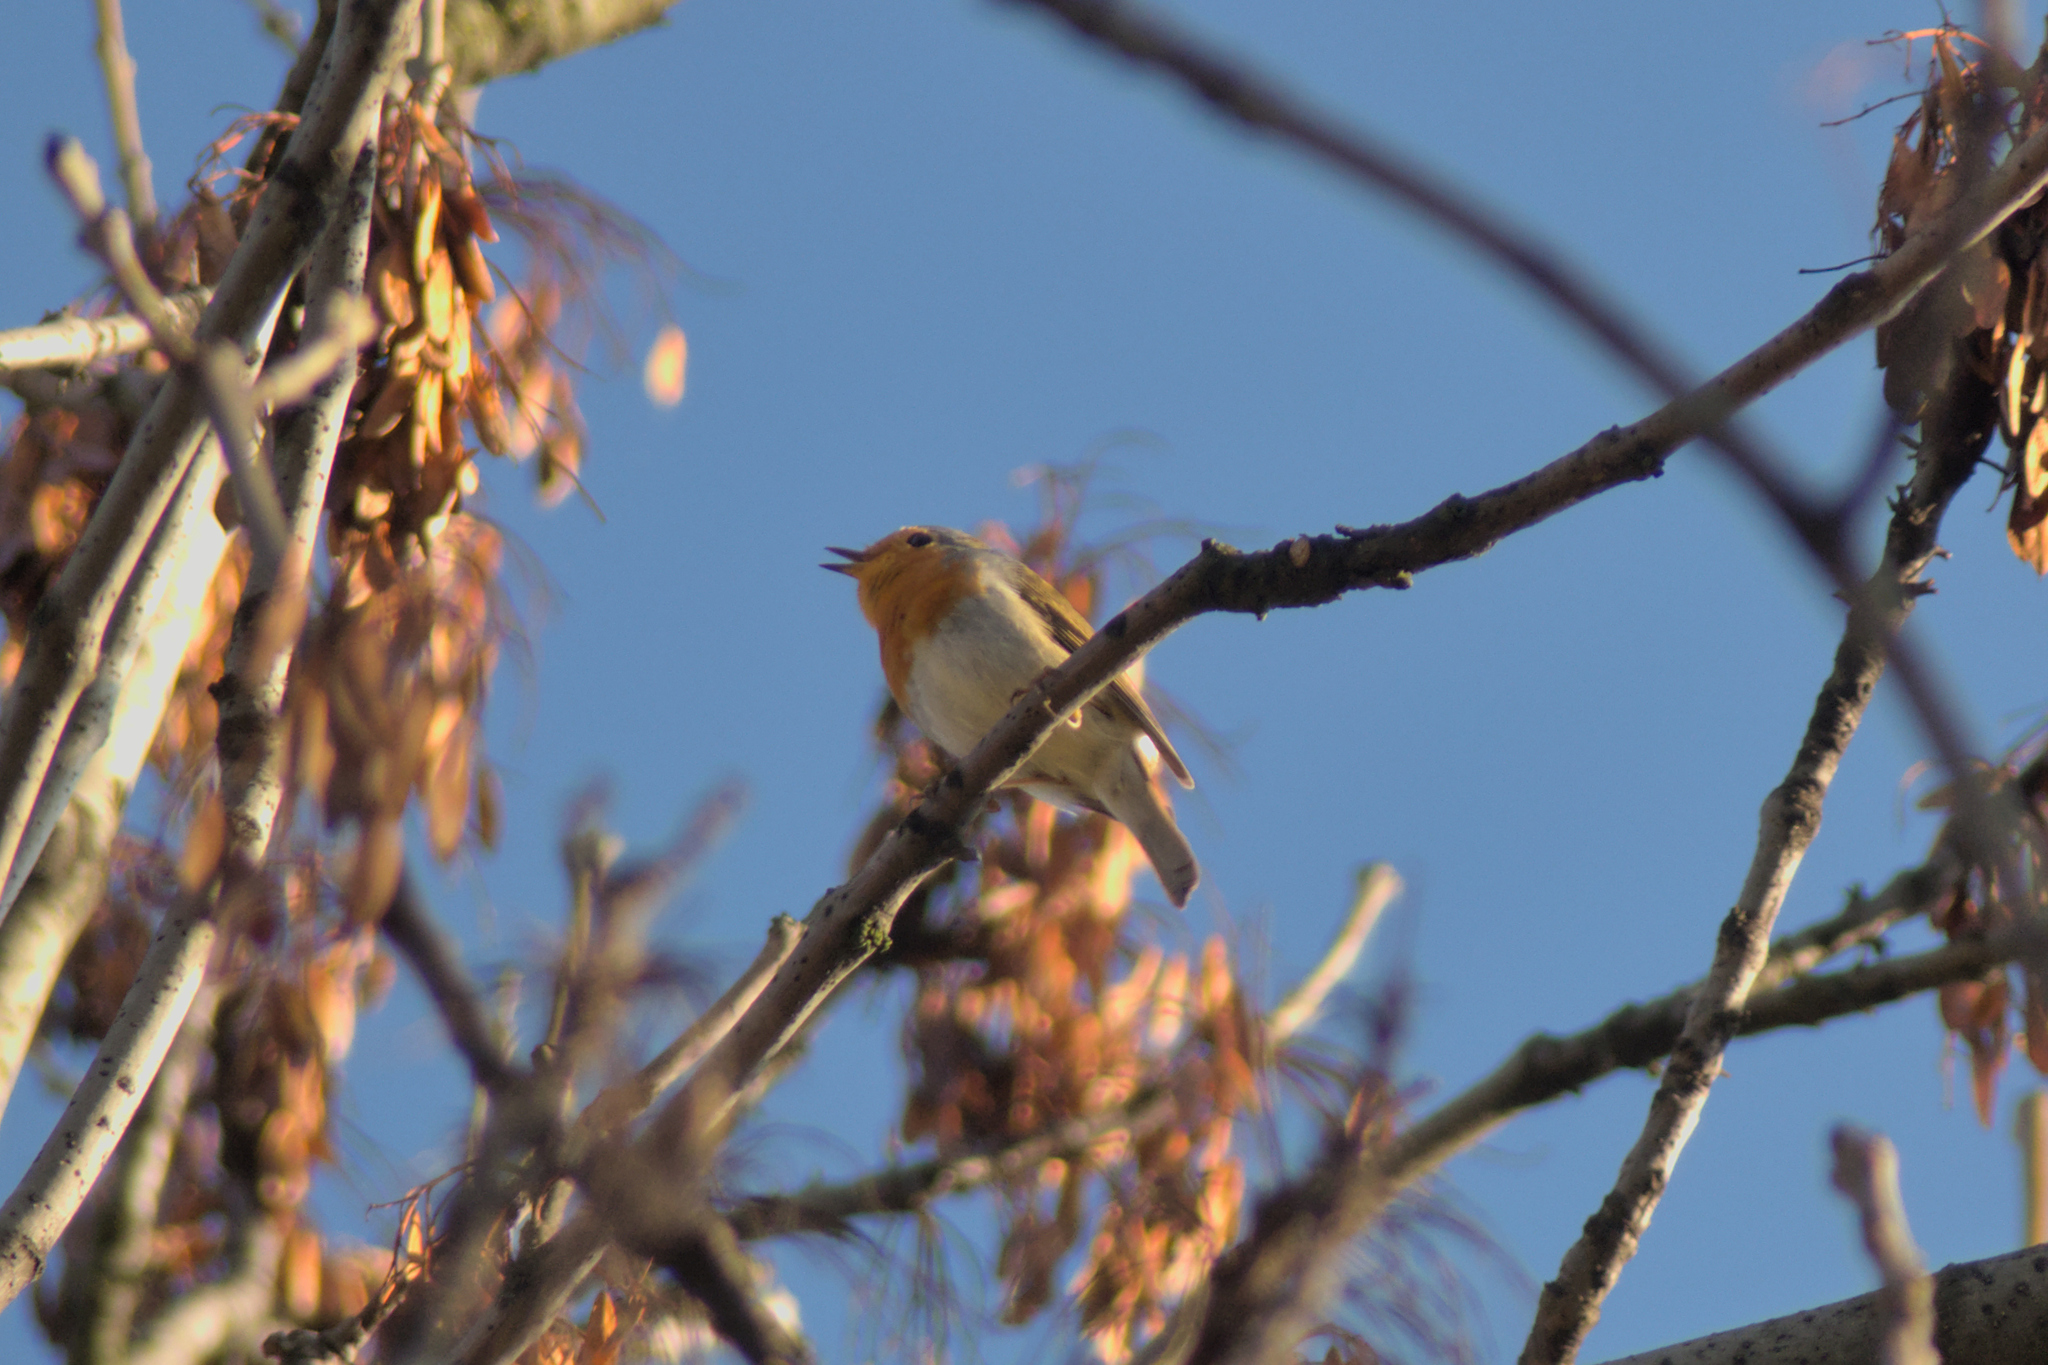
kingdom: Animalia
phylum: Chordata
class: Aves
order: Passeriformes
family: Muscicapidae
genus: Erithacus
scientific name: Erithacus rubecula
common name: European robin
